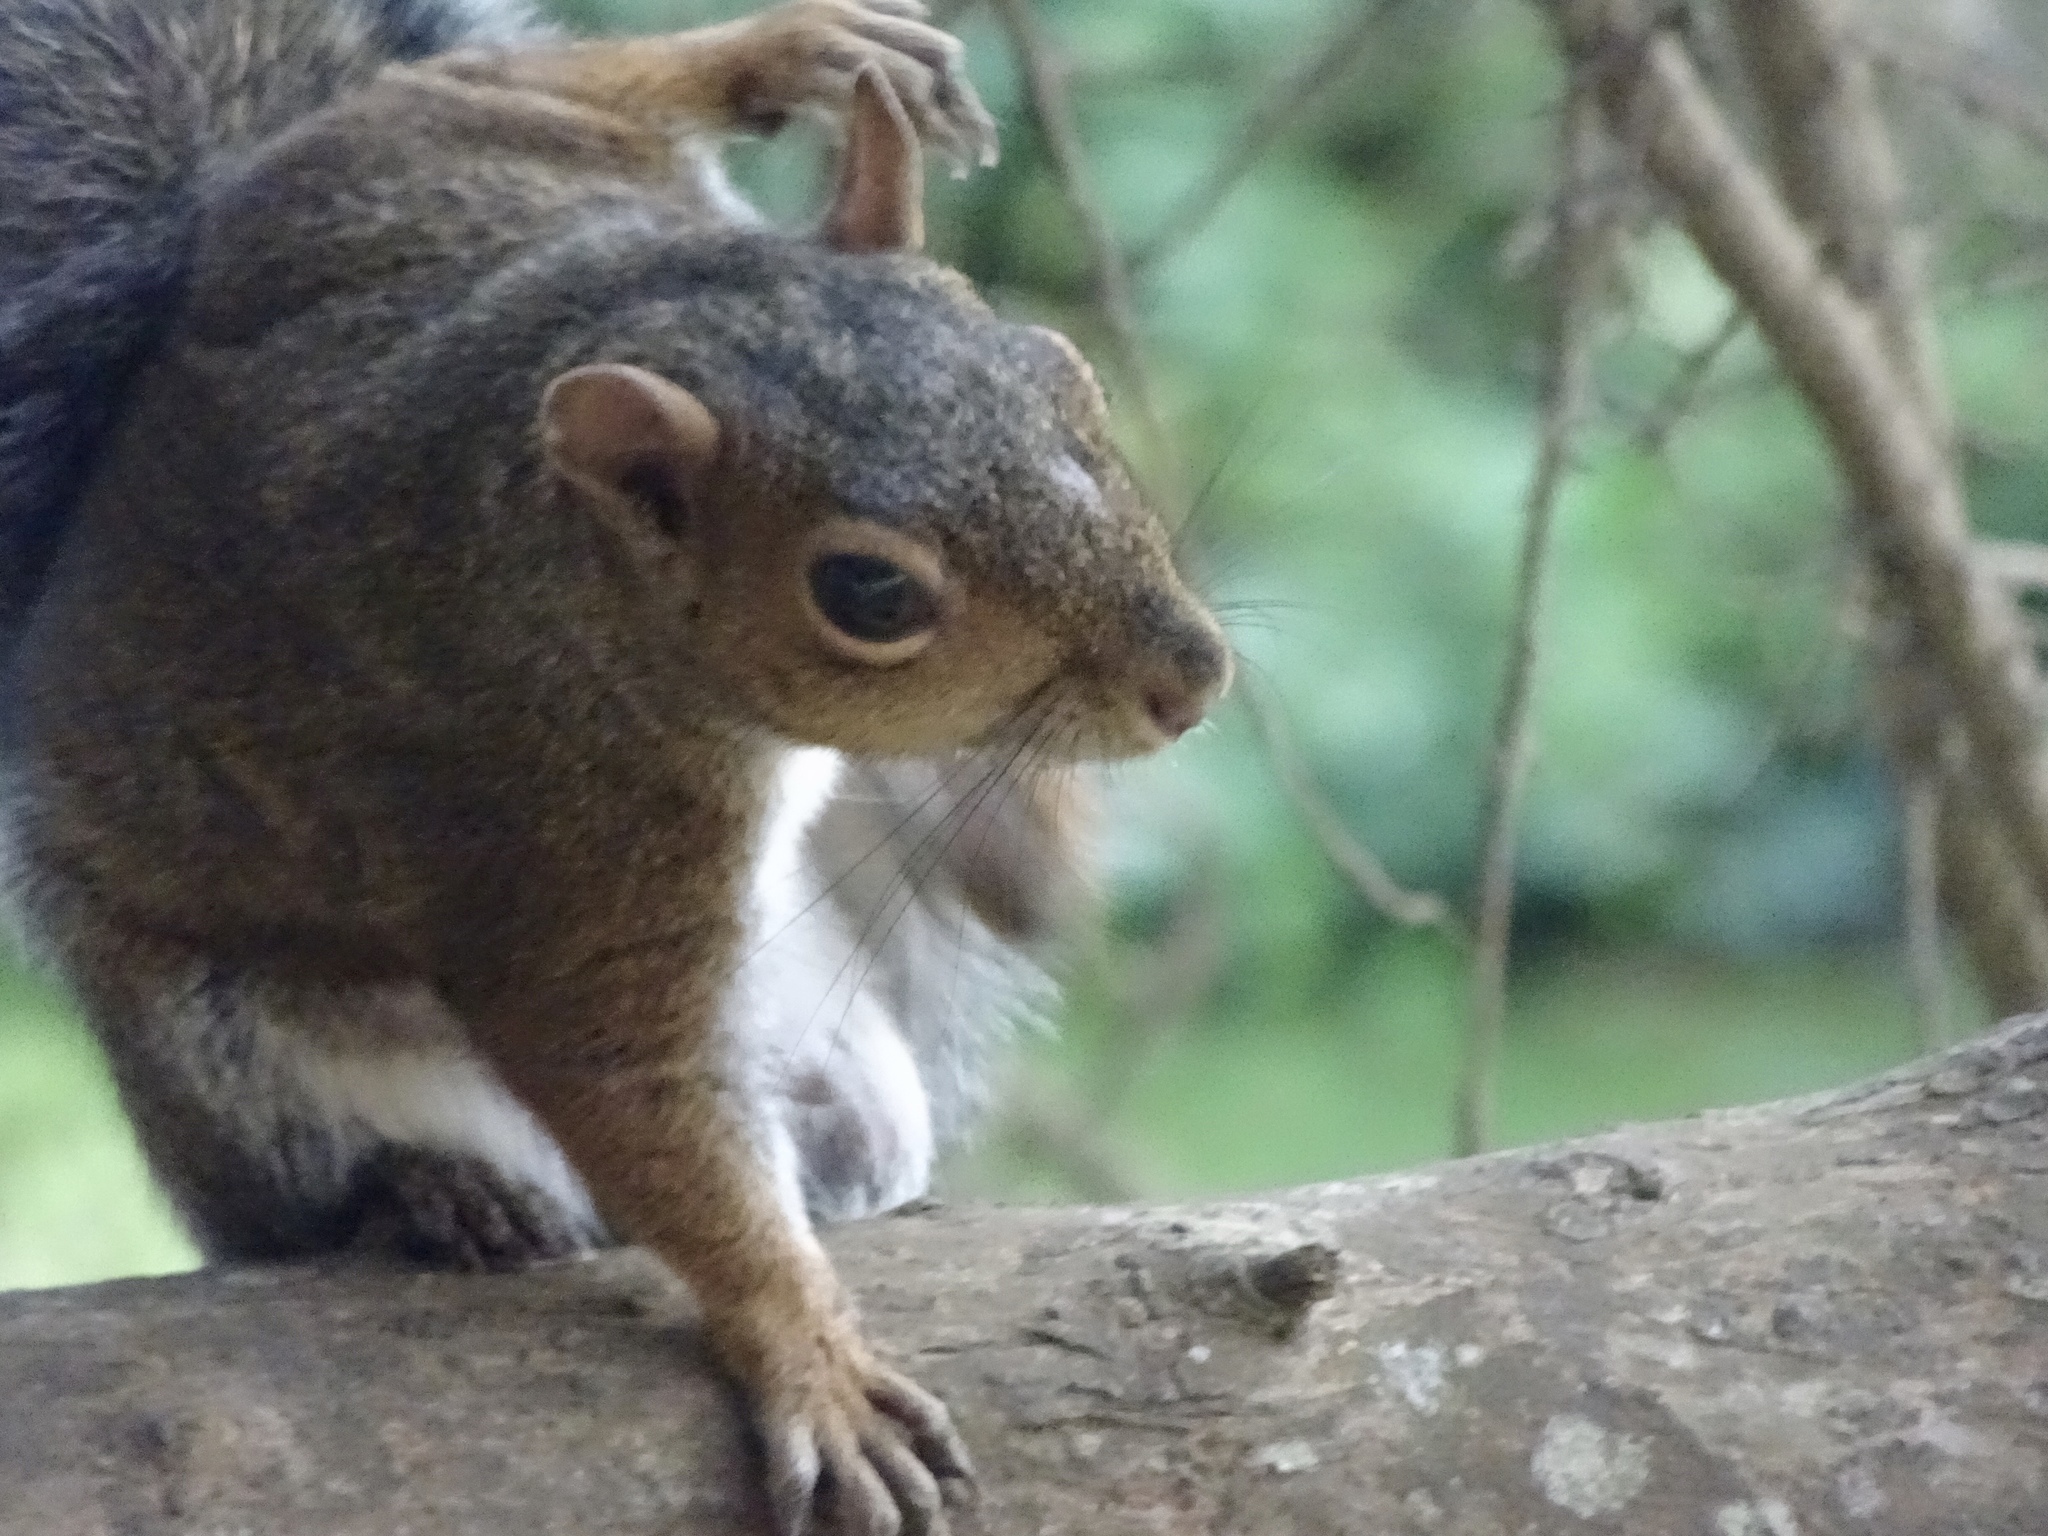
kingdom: Animalia
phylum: Chordata
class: Mammalia
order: Rodentia
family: Sciuridae
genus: Sciurus
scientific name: Sciurus carolinensis
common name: Eastern gray squirrel
